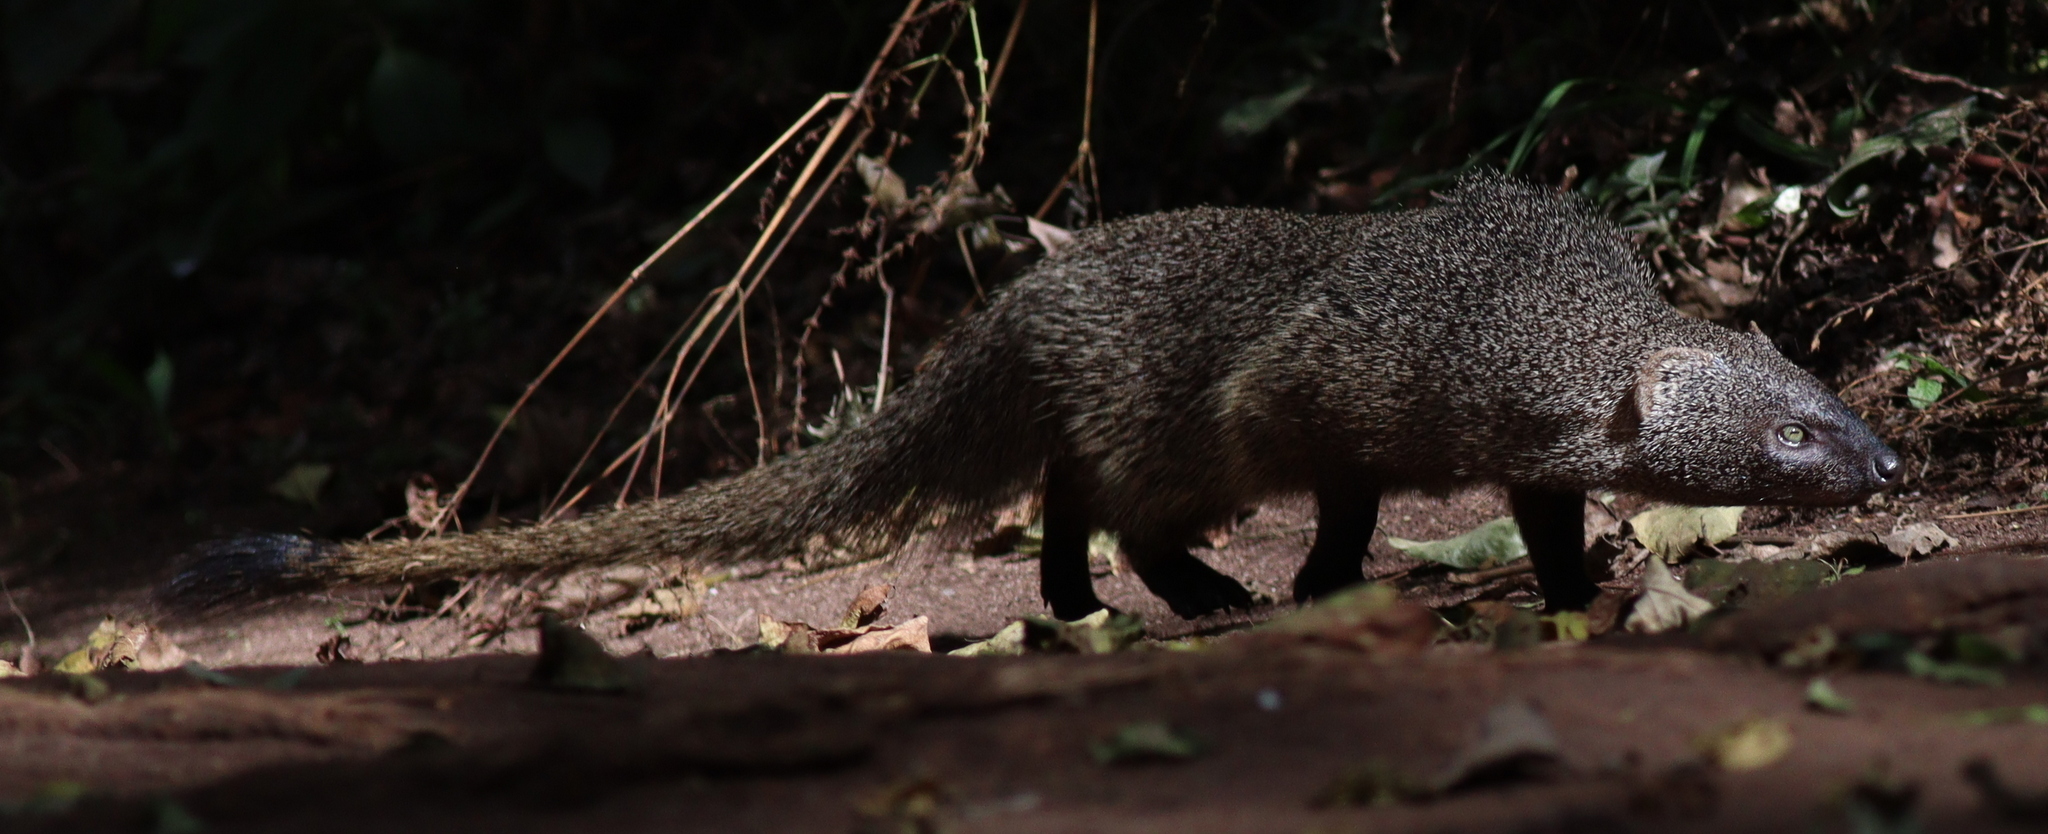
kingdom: Animalia
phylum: Chordata
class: Mammalia
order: Carnivora
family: Herpestidae
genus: Herpestes
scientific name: Herpestes ichneumon
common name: Egyptian mongoose
